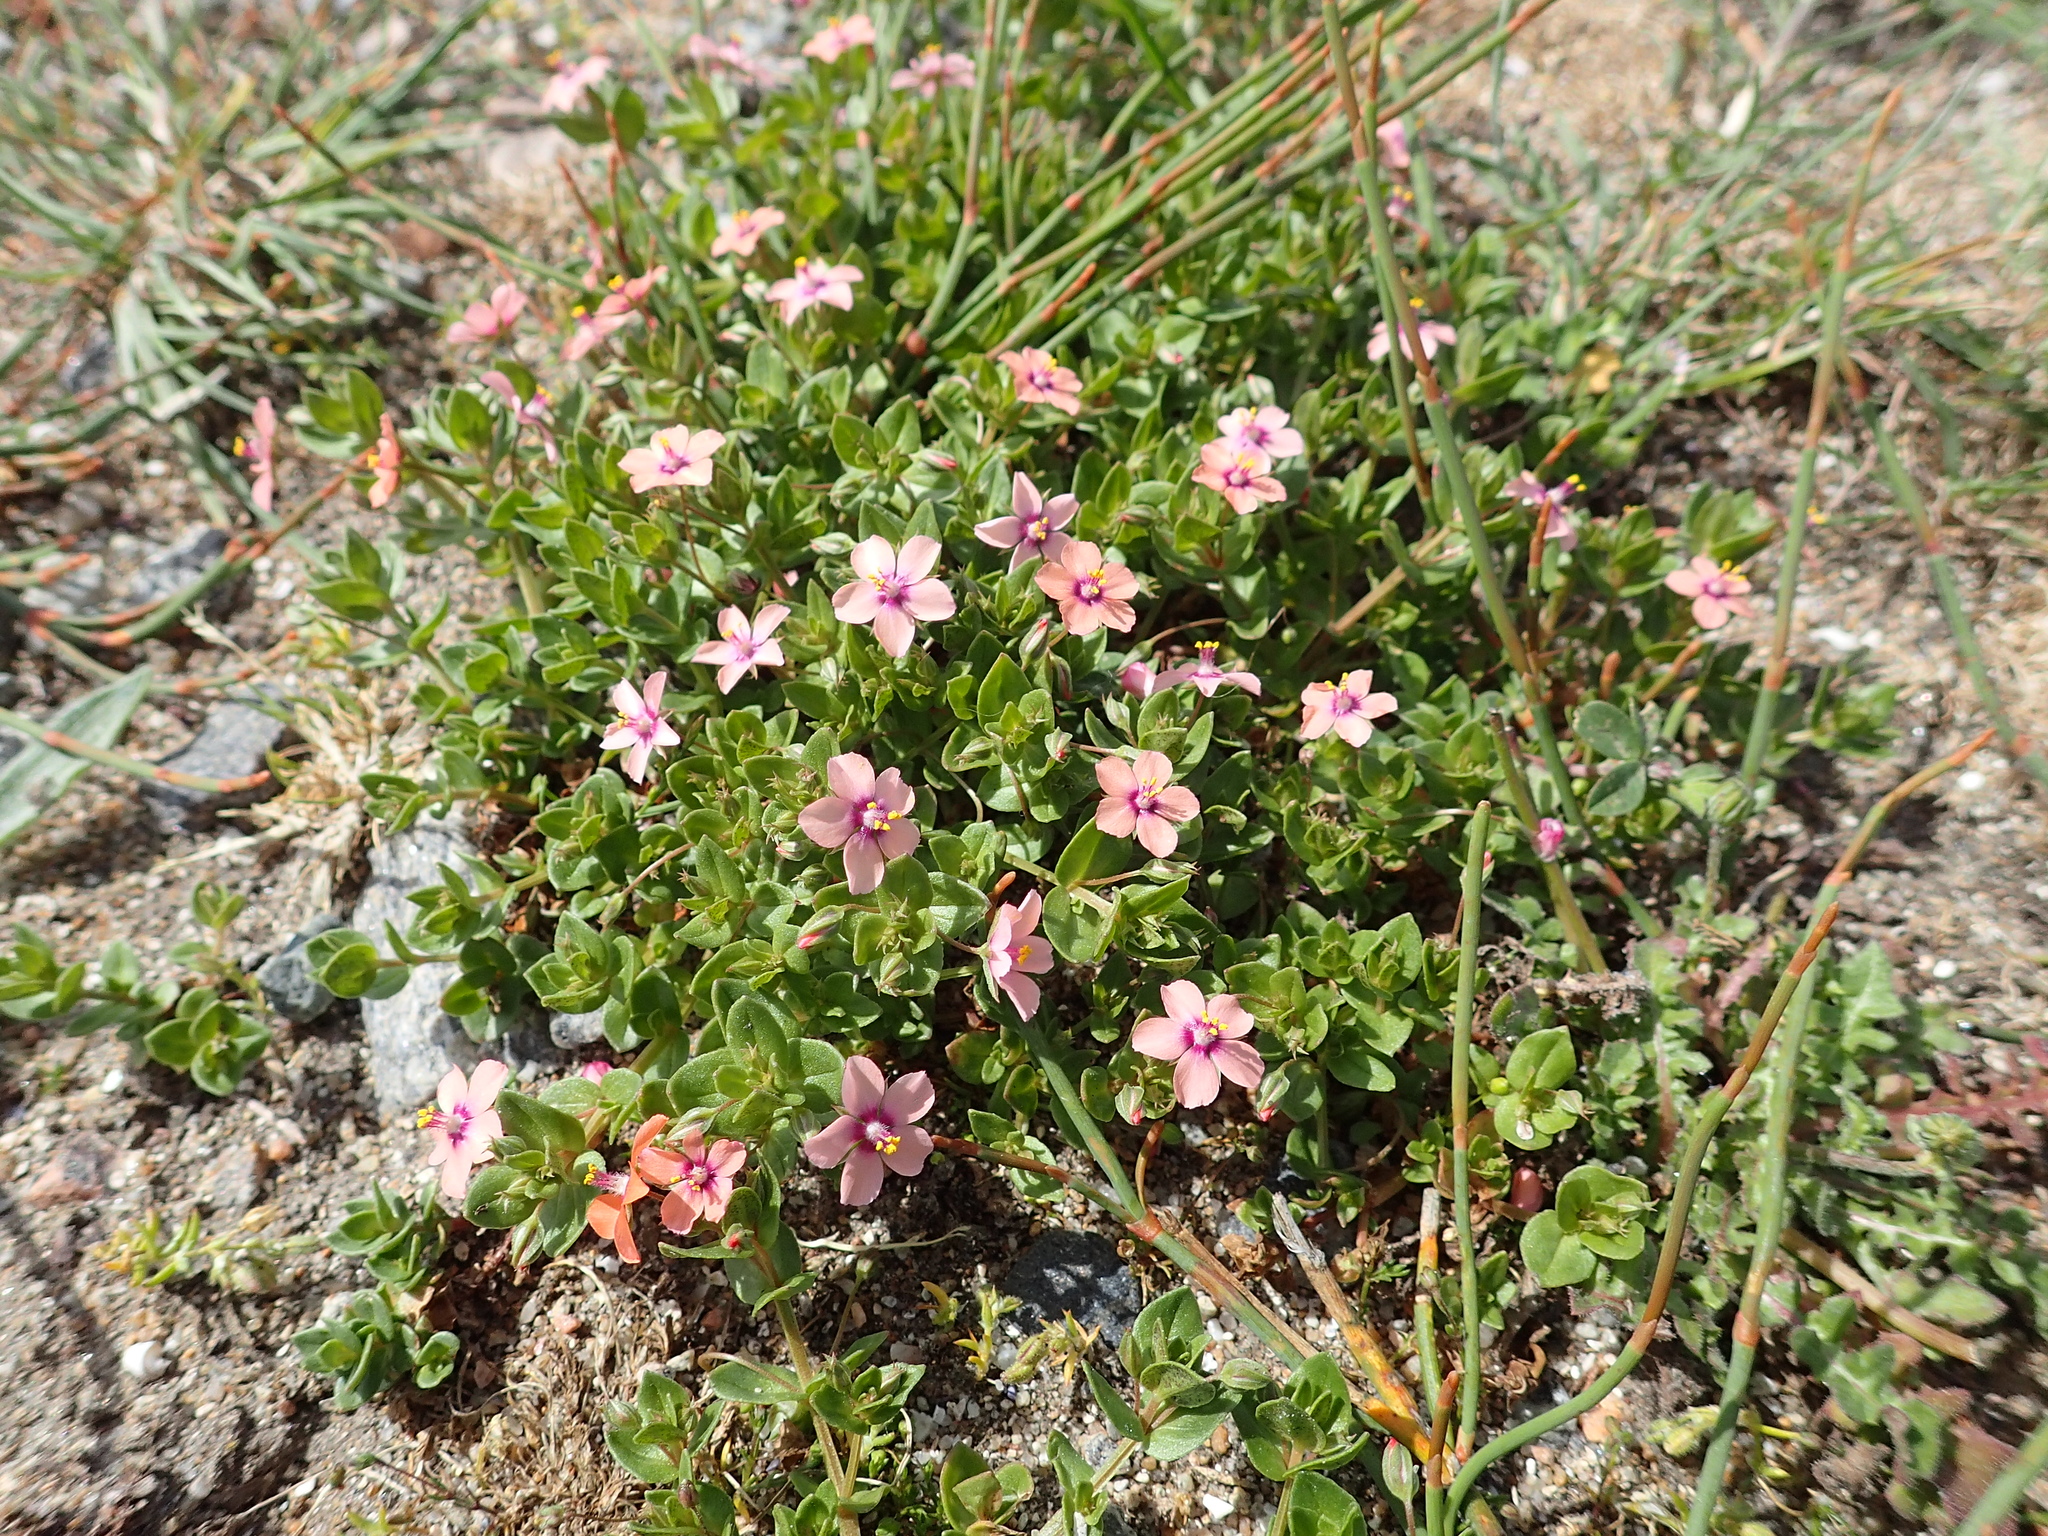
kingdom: Plantae
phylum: Tracheophyta
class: Magnoliopsida
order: Ericales
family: Primulaceae
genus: Lysimachia
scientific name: Lysimachia arvensis
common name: Scarlet pimpernel
